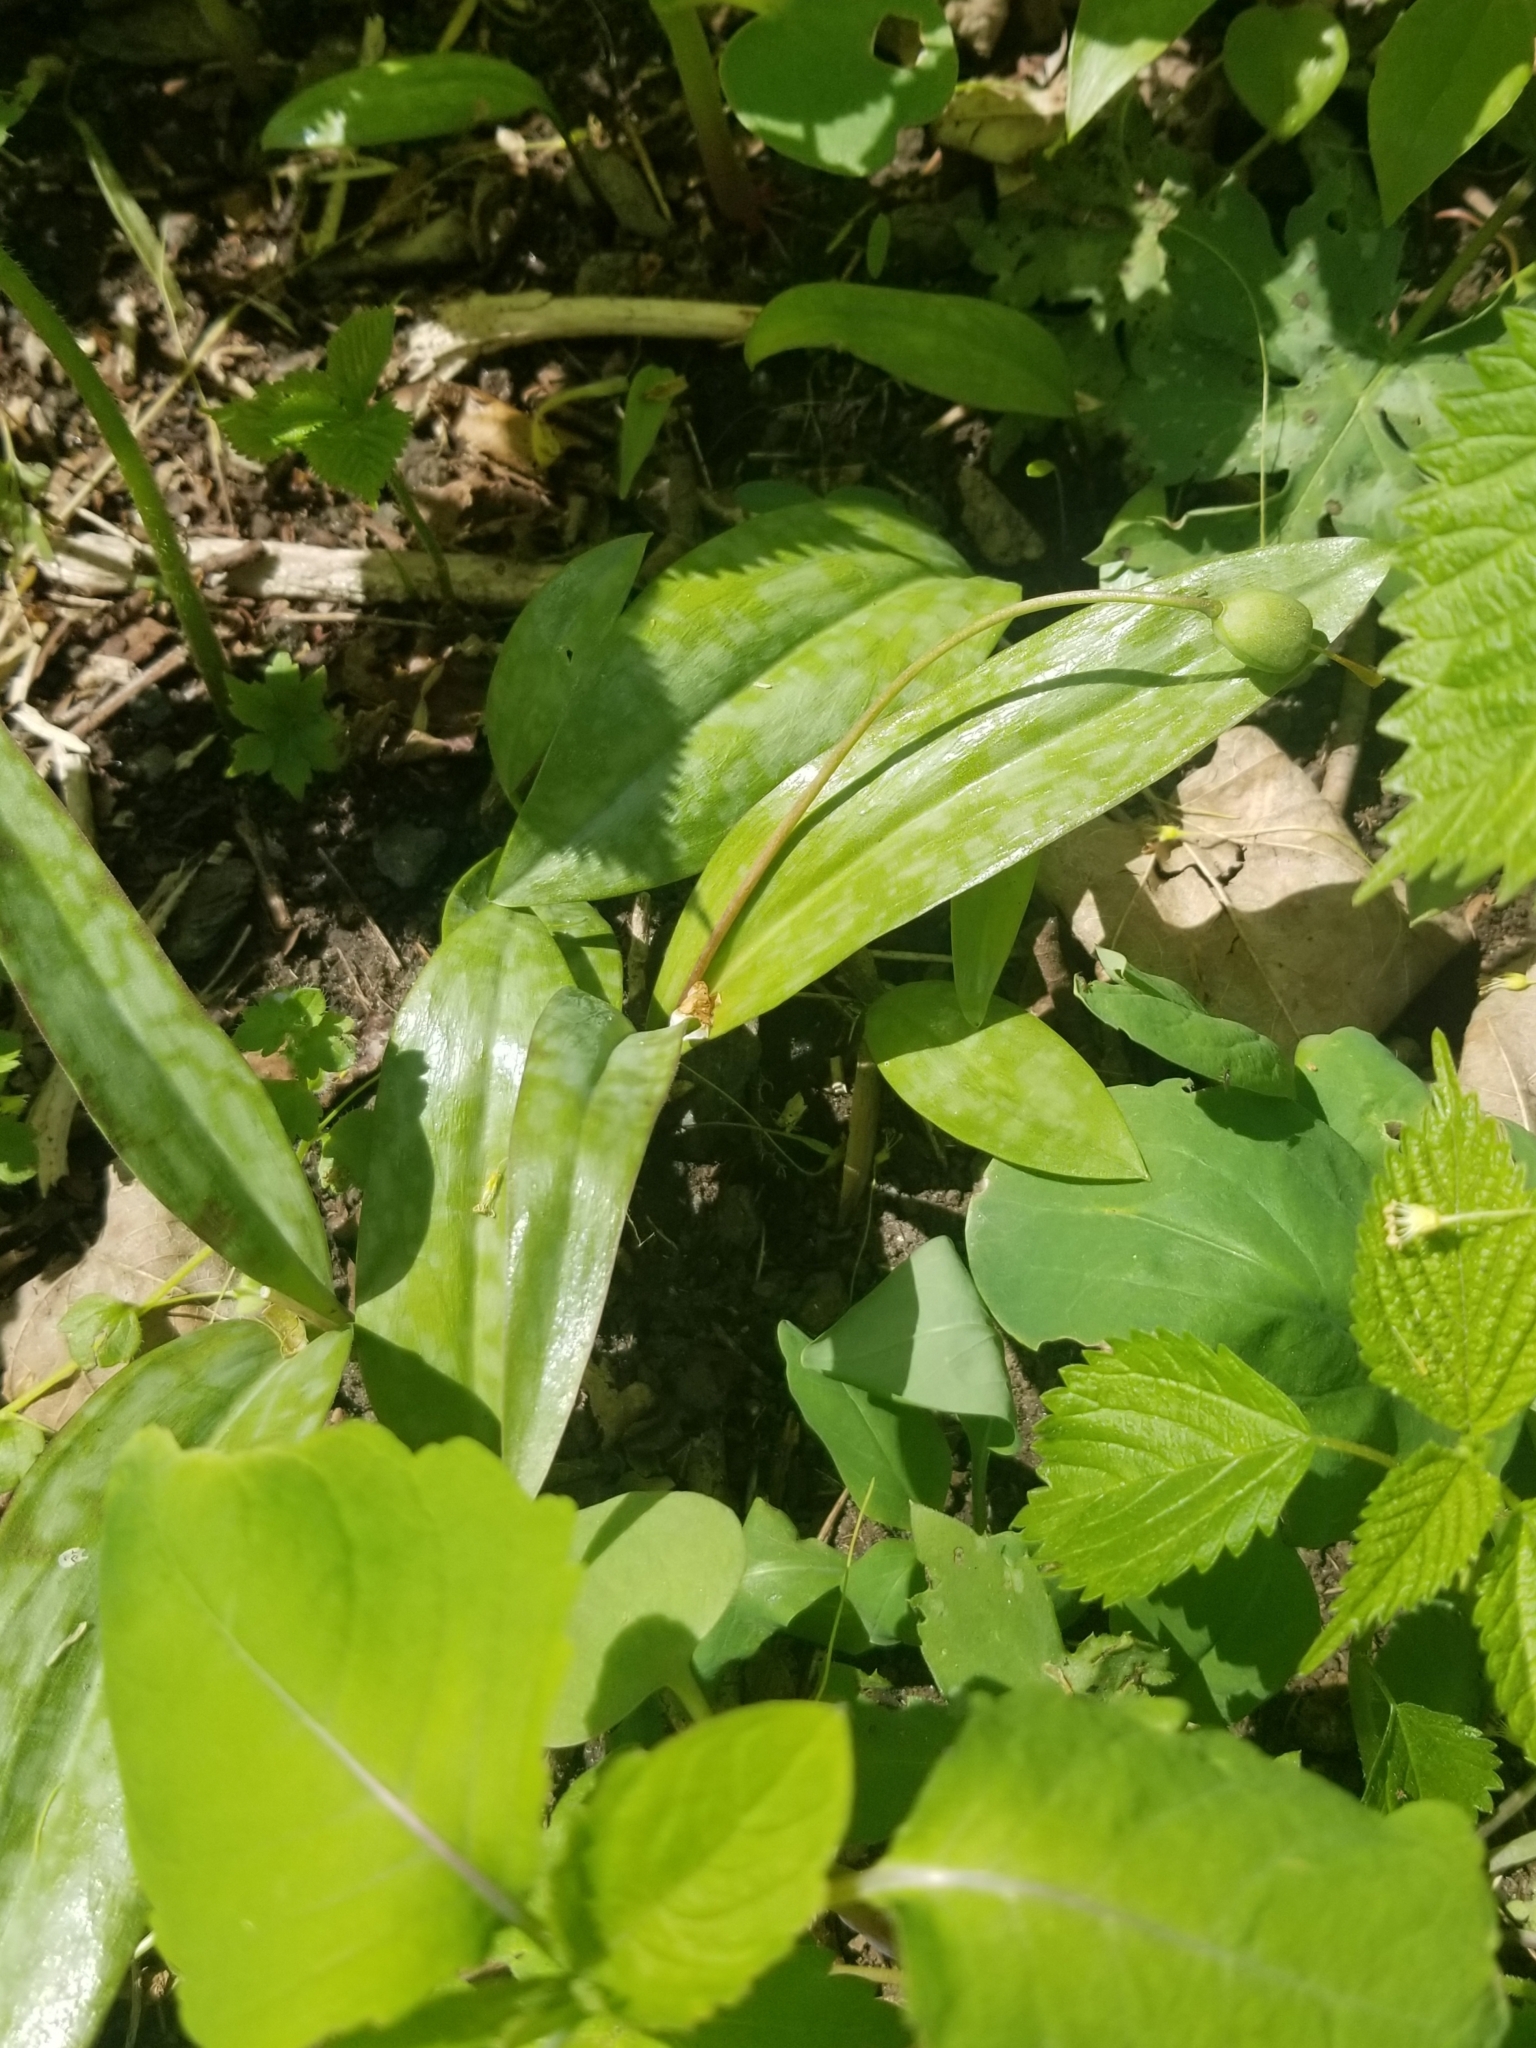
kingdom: Plantae
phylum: Tracheophyta
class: Liliopsida
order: Liliales
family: Liliaceae
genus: Erythronium
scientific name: Erythronium americanum
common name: Yellow adder's-tongue
